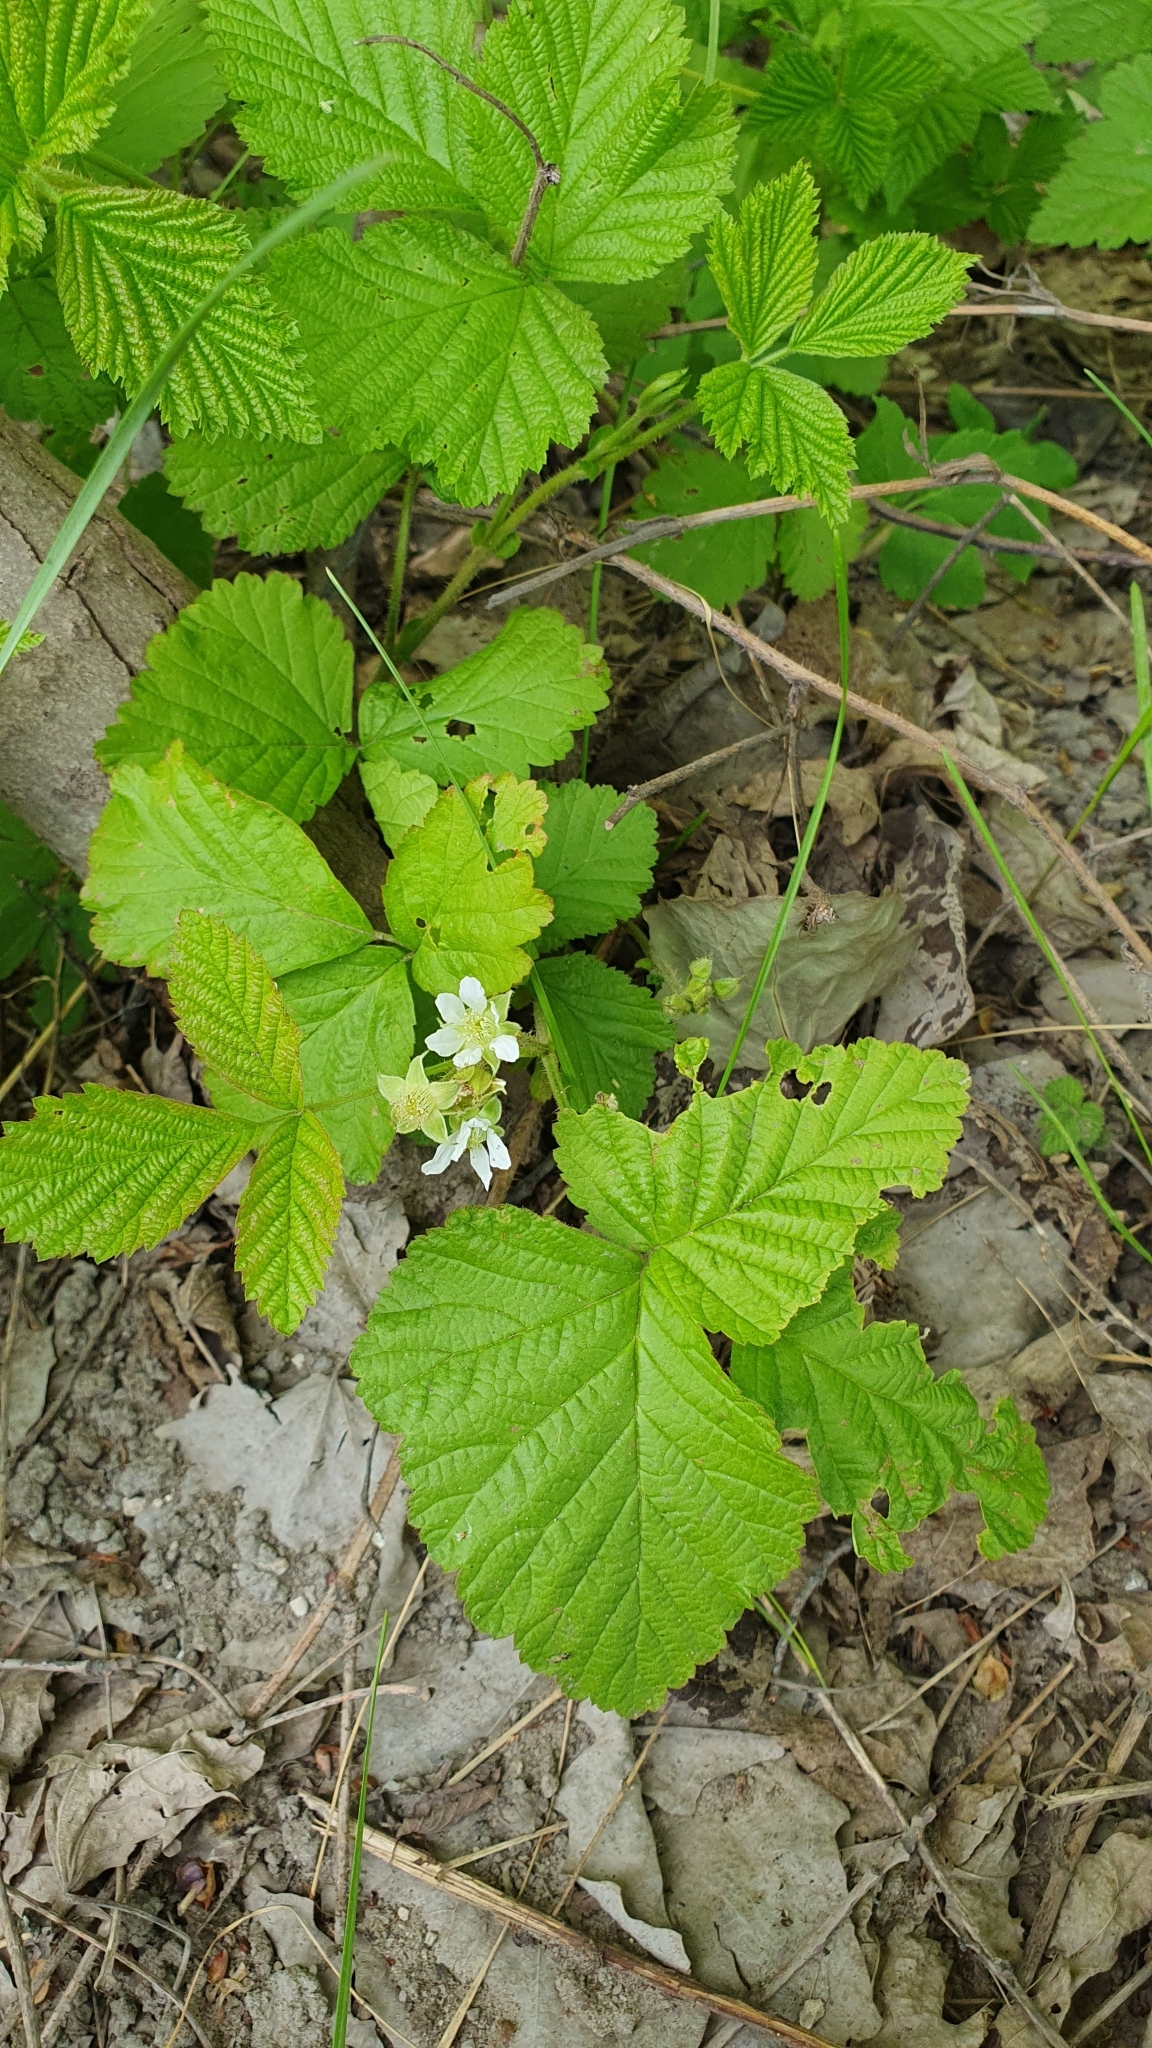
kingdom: Plantae
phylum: Tracheophyta
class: Magnoliopsida
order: Rosales
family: Rosaceae
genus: Rubus
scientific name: Rubus saxatilis
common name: Stone bramble
